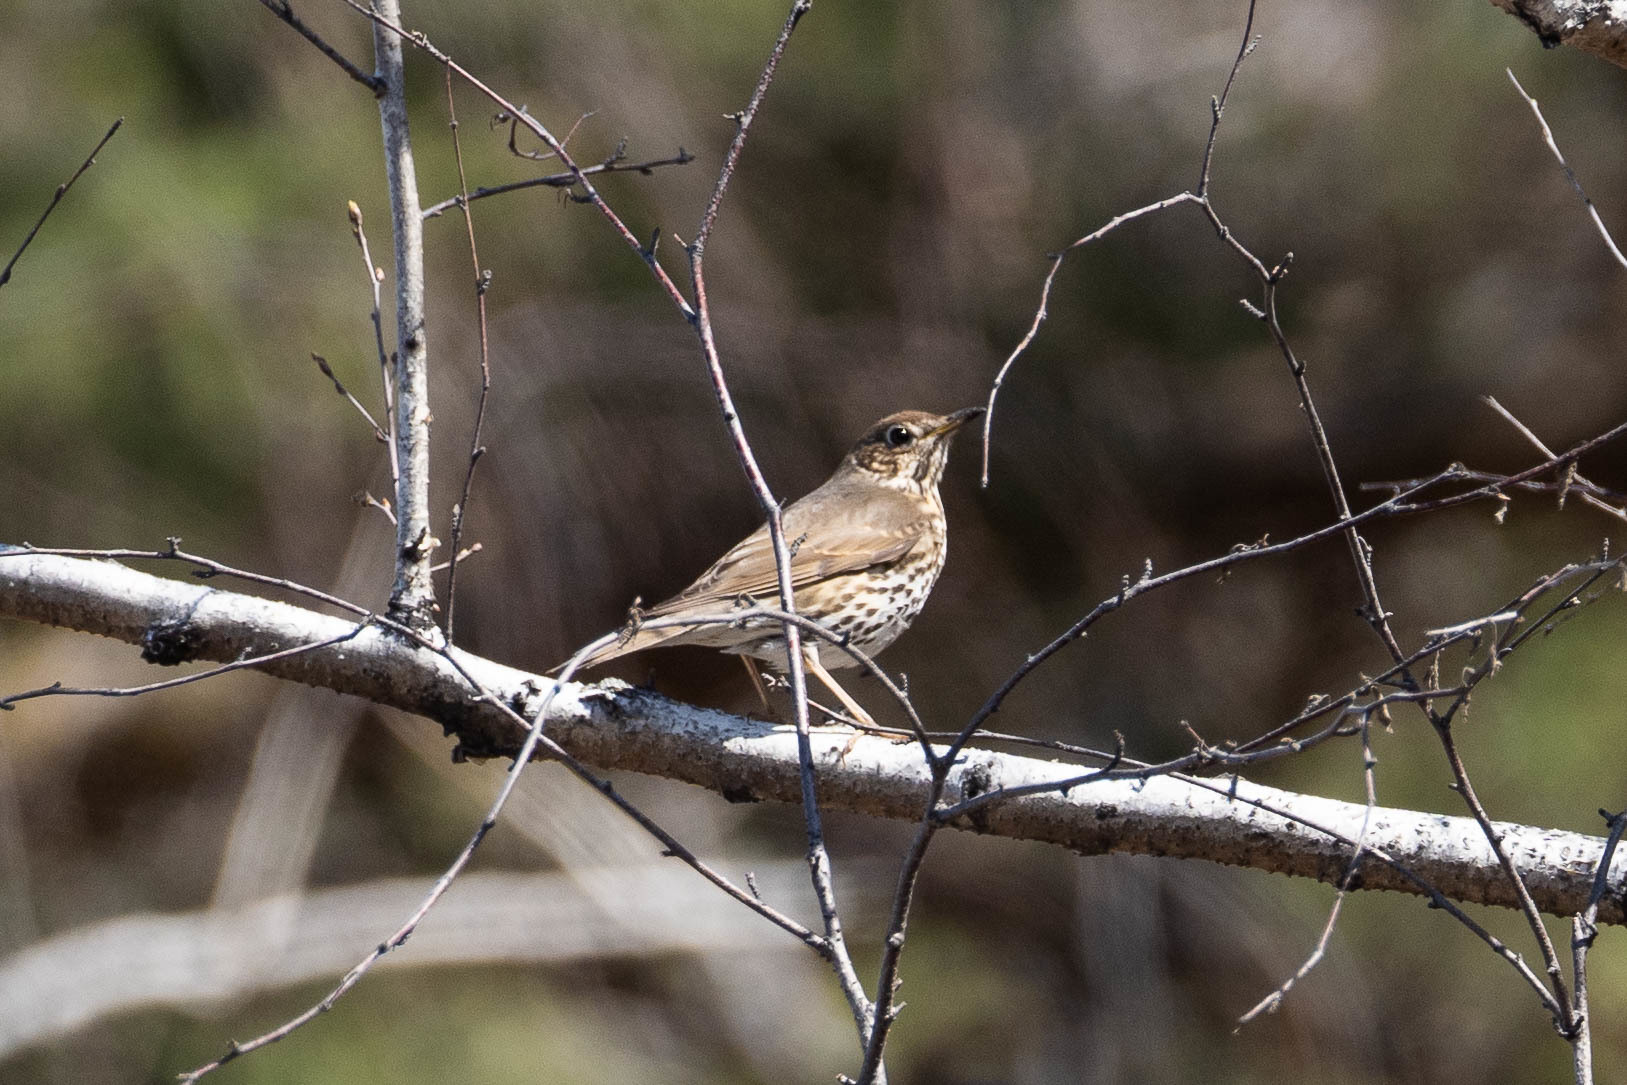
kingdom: Animalia
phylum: Chordata
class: Aves
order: Passeriformes
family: Turdidae
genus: Turdus
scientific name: Turdus philomelos
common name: Song thrush
